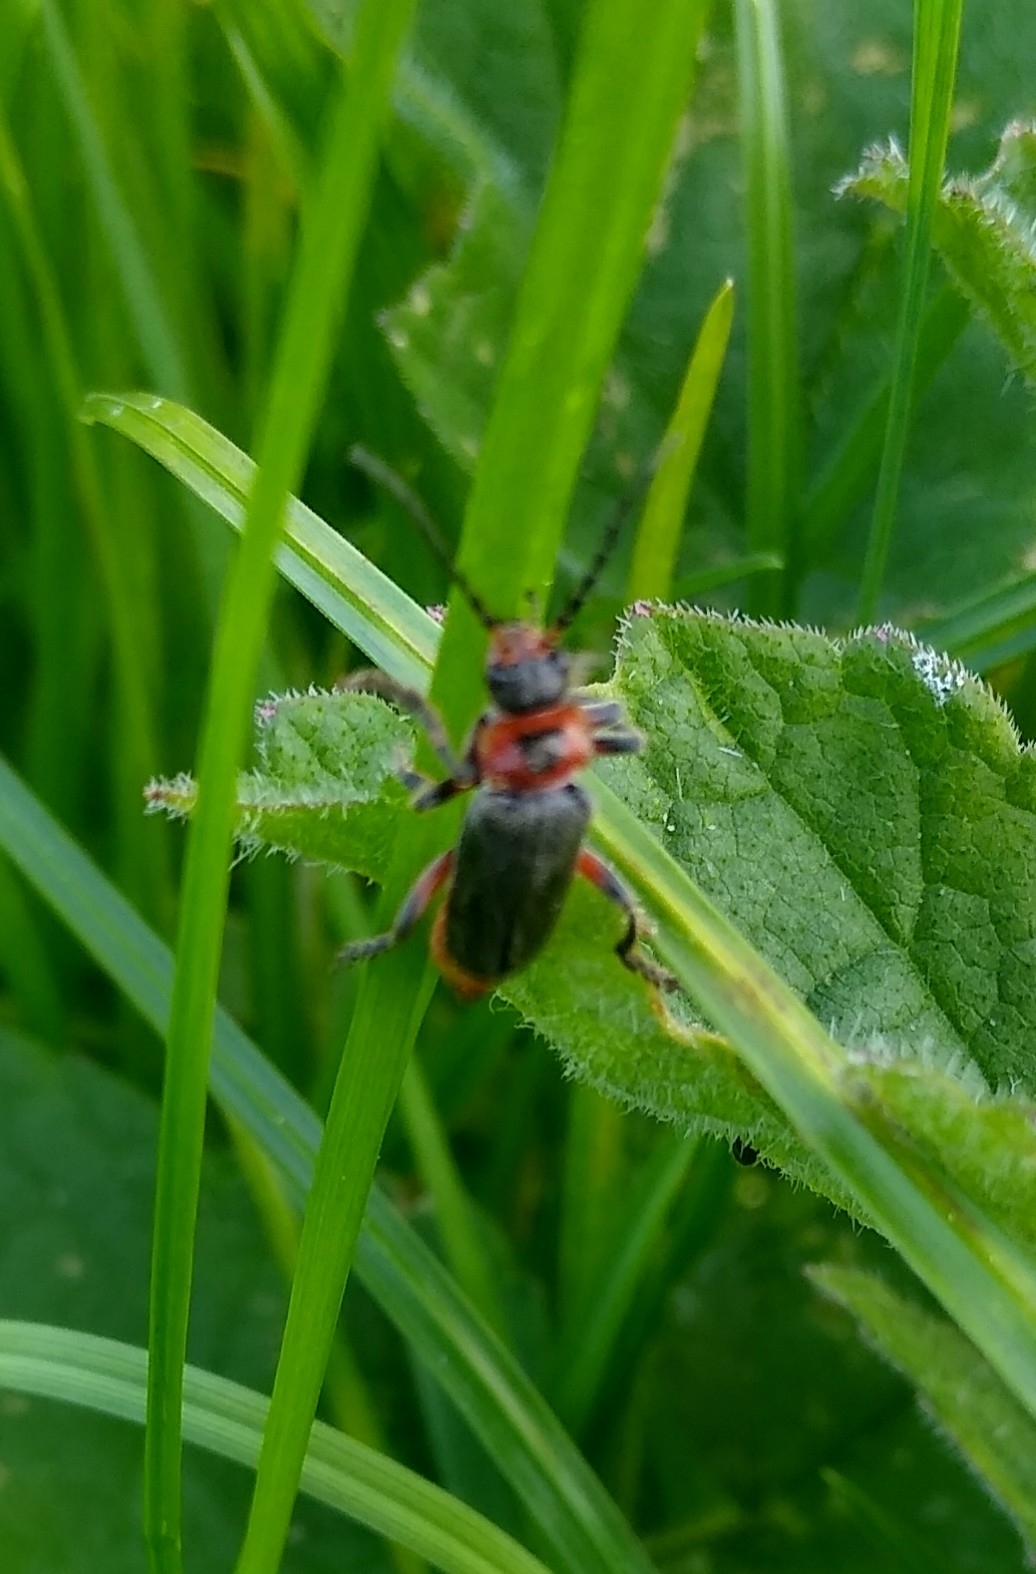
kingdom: Animalia
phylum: Arthropoda
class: Insecta
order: Coleoptera
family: Cantharidae
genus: Cantharis
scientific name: Cantharis rustica
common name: Soldier beetle
